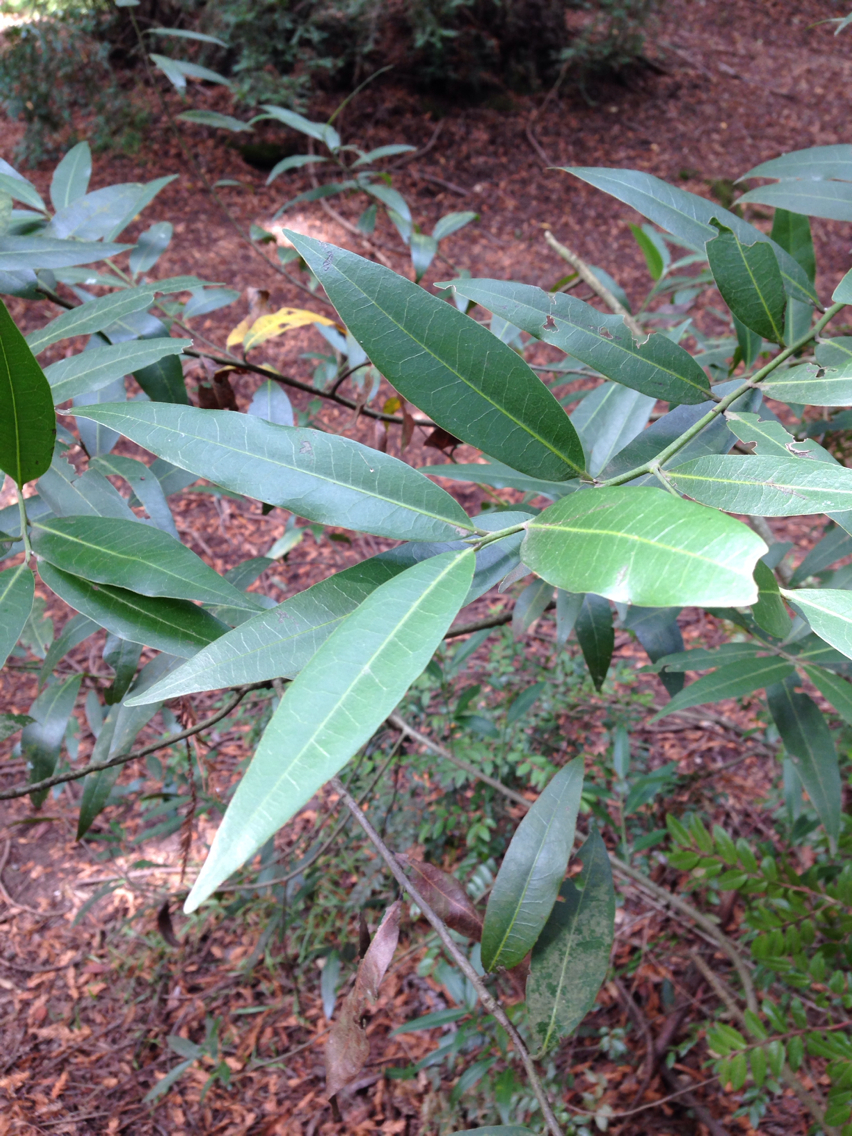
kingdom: Plantae
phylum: Tracheophyta
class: Magnoliopsida
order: Laurales
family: Lauraceae
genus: Umbellularia
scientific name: Umbellularia californica
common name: California bay
